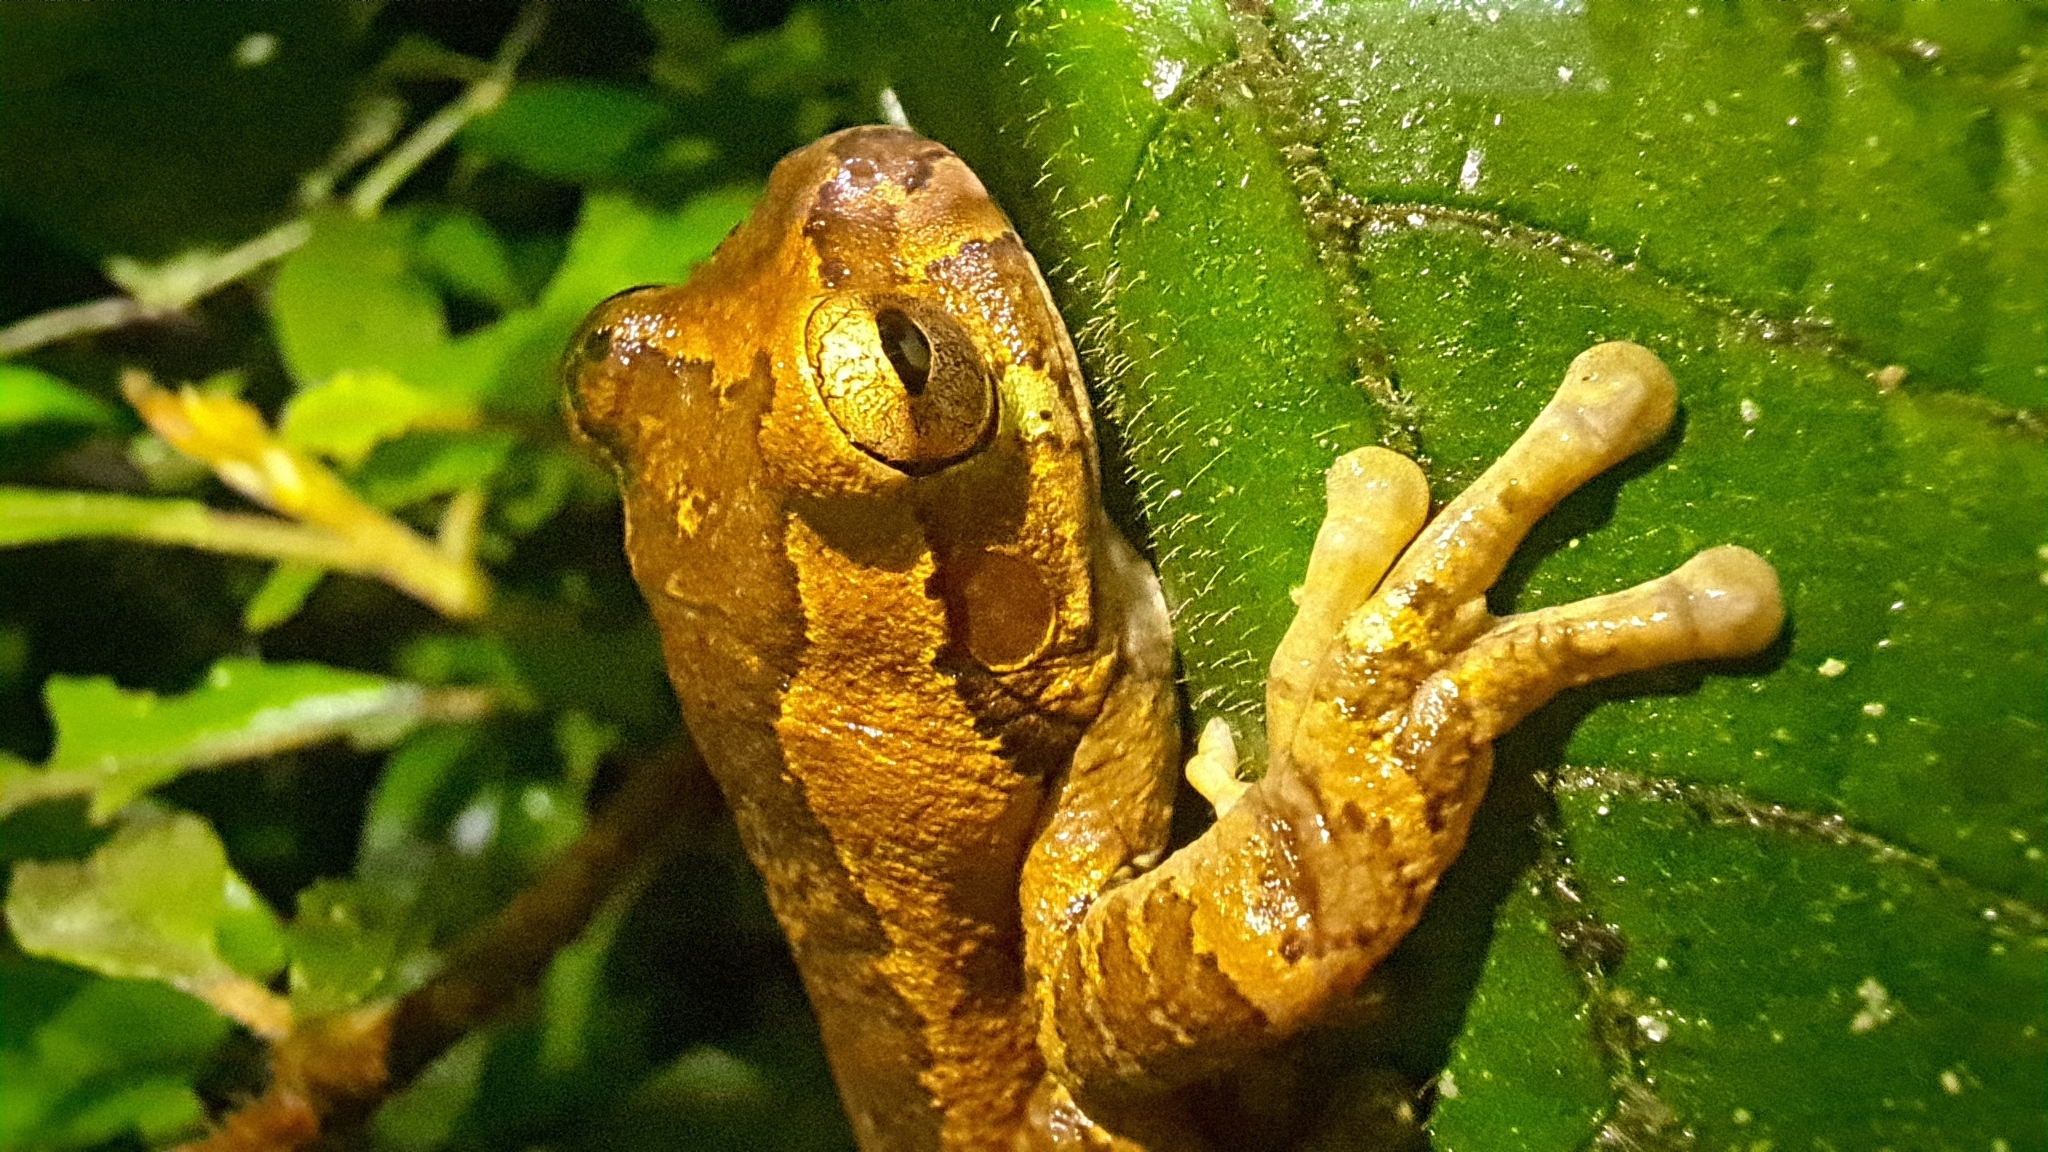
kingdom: Animalia
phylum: Chordata
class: Amphibia
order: Anura
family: Hylidae
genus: Smilisca
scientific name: Smilisca manisorum
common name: Masked tree frog
